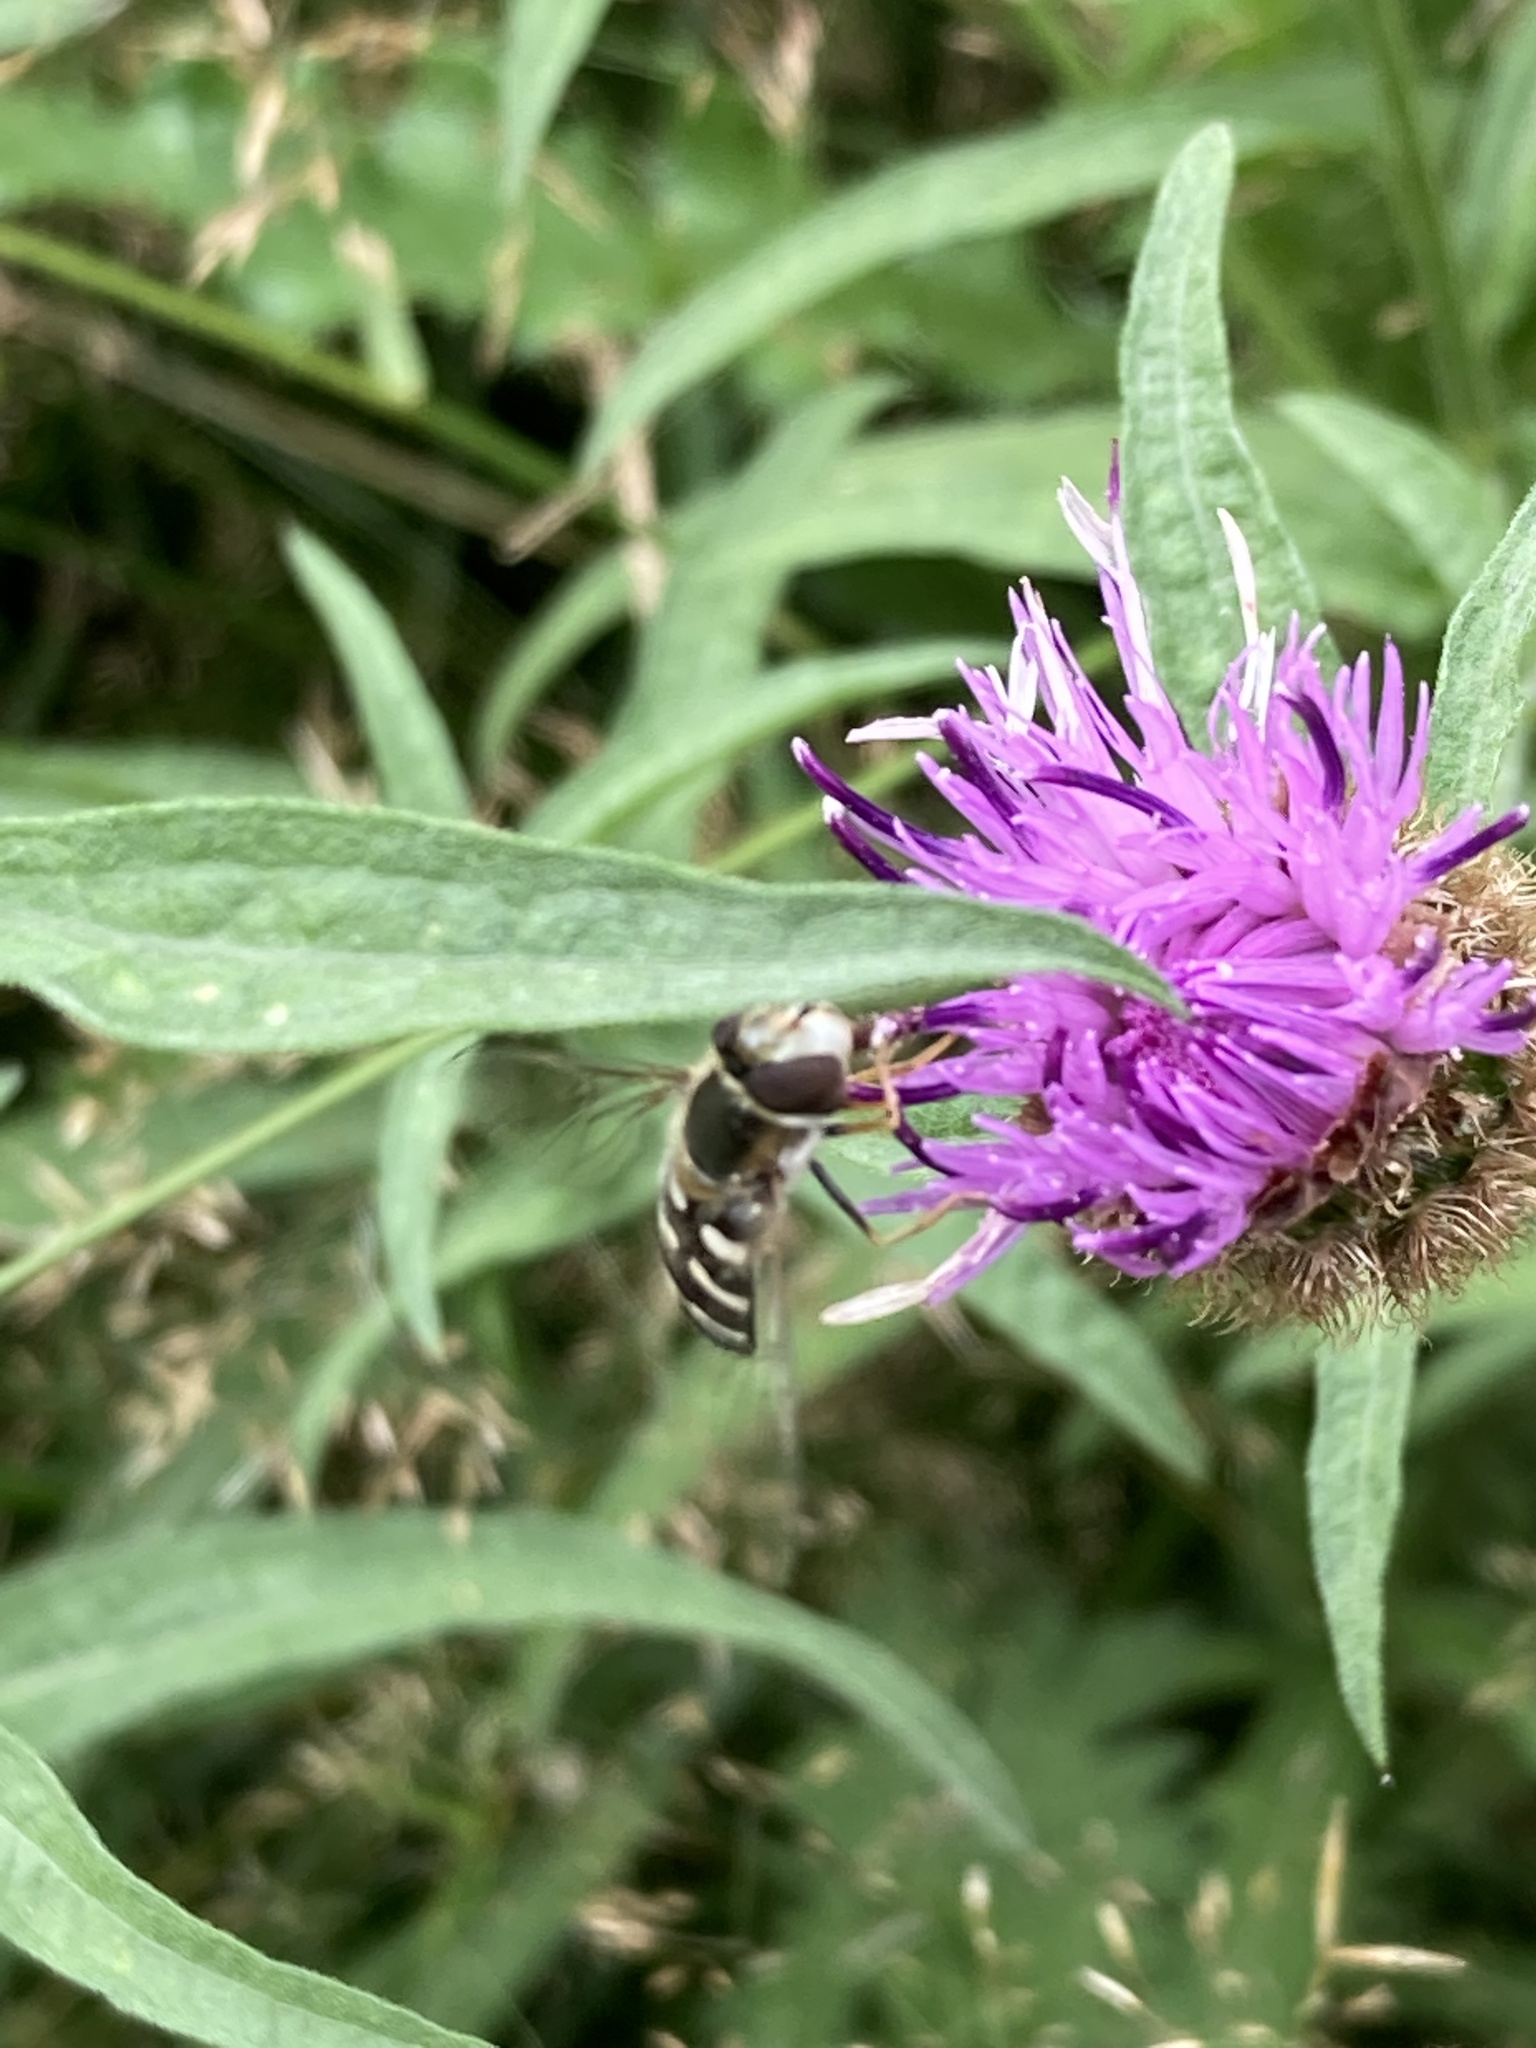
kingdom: Animalia
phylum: Arthropoda
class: Insecta
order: Diptera
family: Syrphidae
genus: Scaeva
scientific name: Scaeva pyrastri
